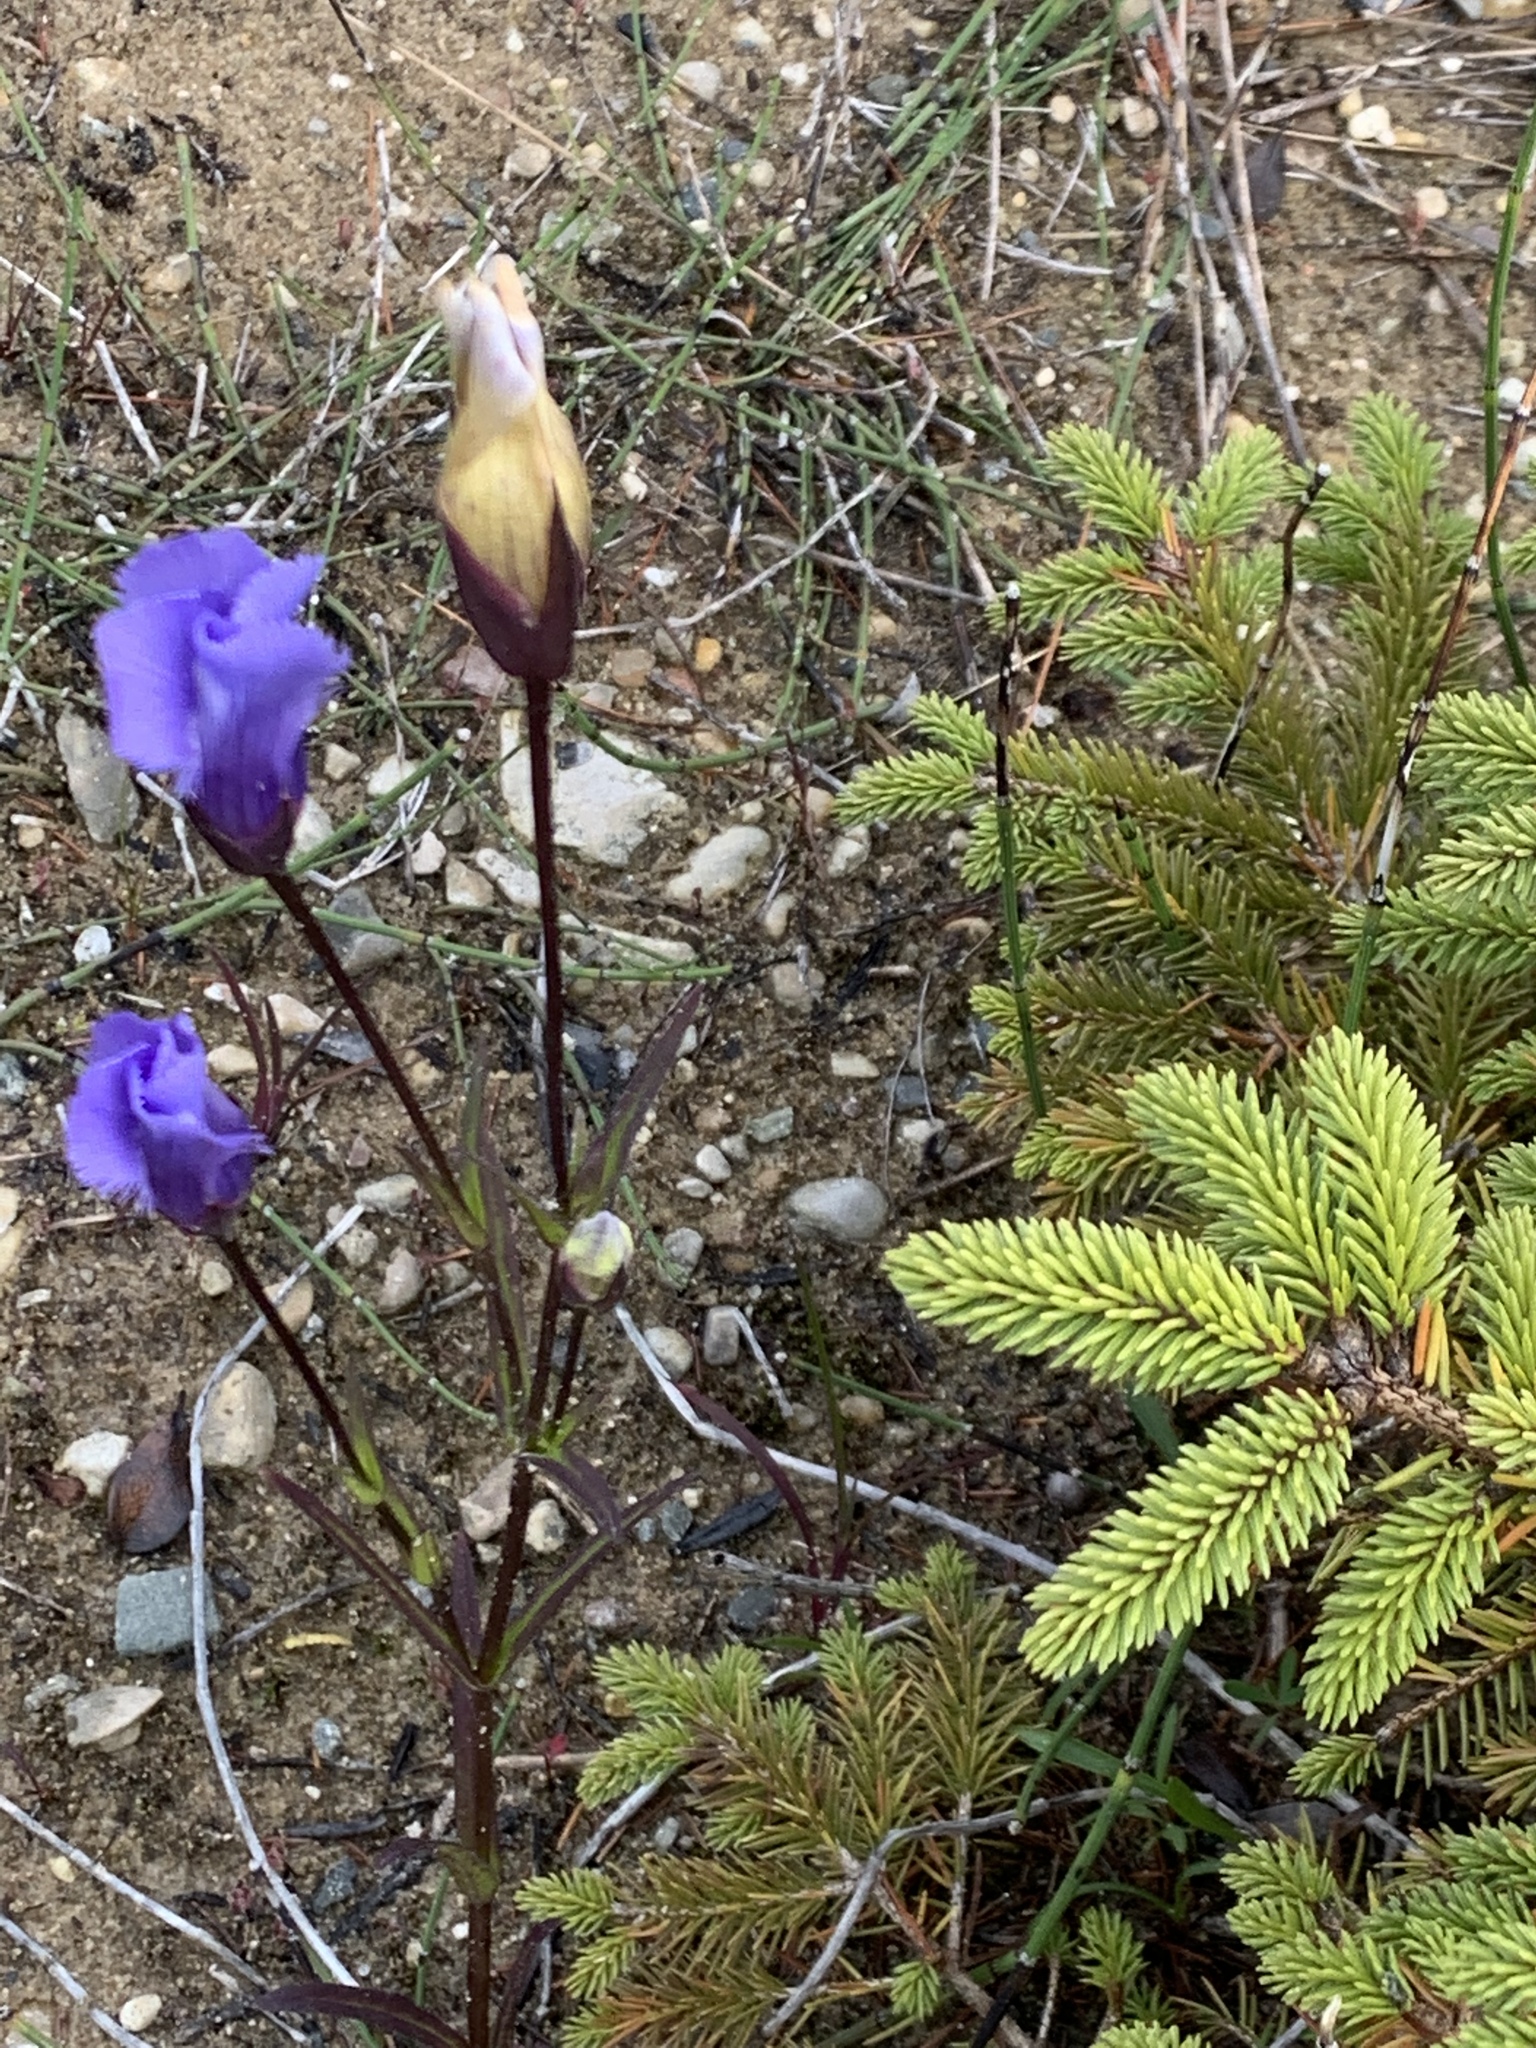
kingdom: Plantae
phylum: Tracheophyta
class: Magnoliopsida
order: Gentianales
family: Gentianaceae
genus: Gentianopsis
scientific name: Gentianopsis virgata
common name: Lesser fringed-gentian
